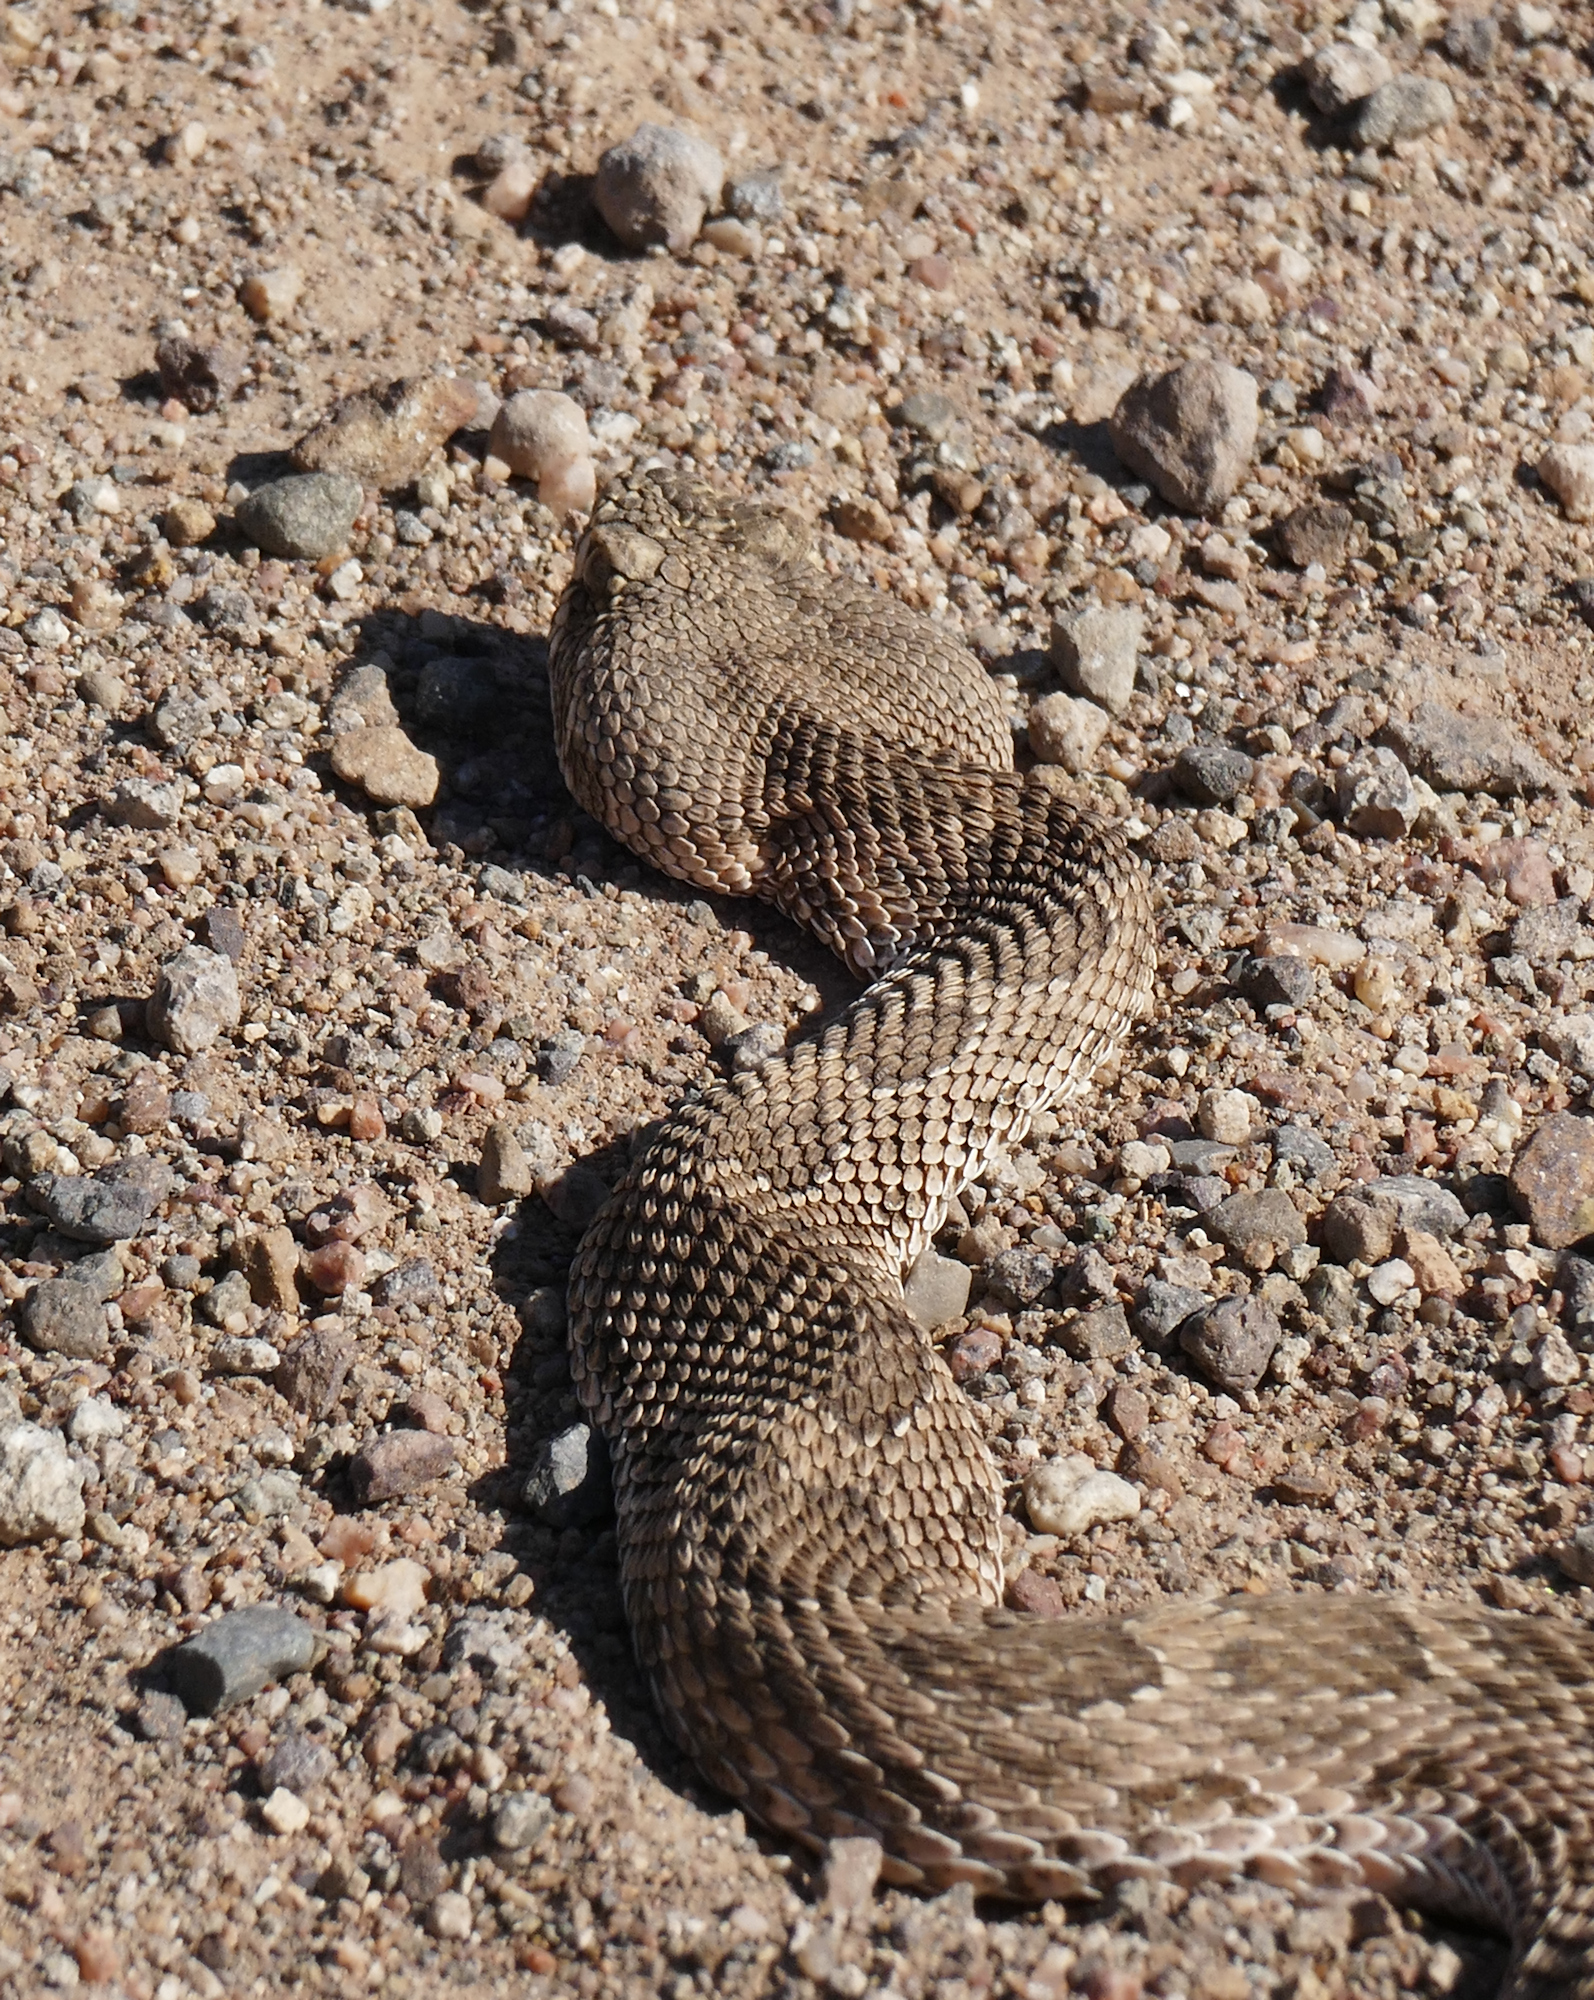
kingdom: Animalia
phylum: Chordata
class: Squamata
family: Viperidae
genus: Crotalus
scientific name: Crotalus viridis
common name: Prairie rattlesnake
